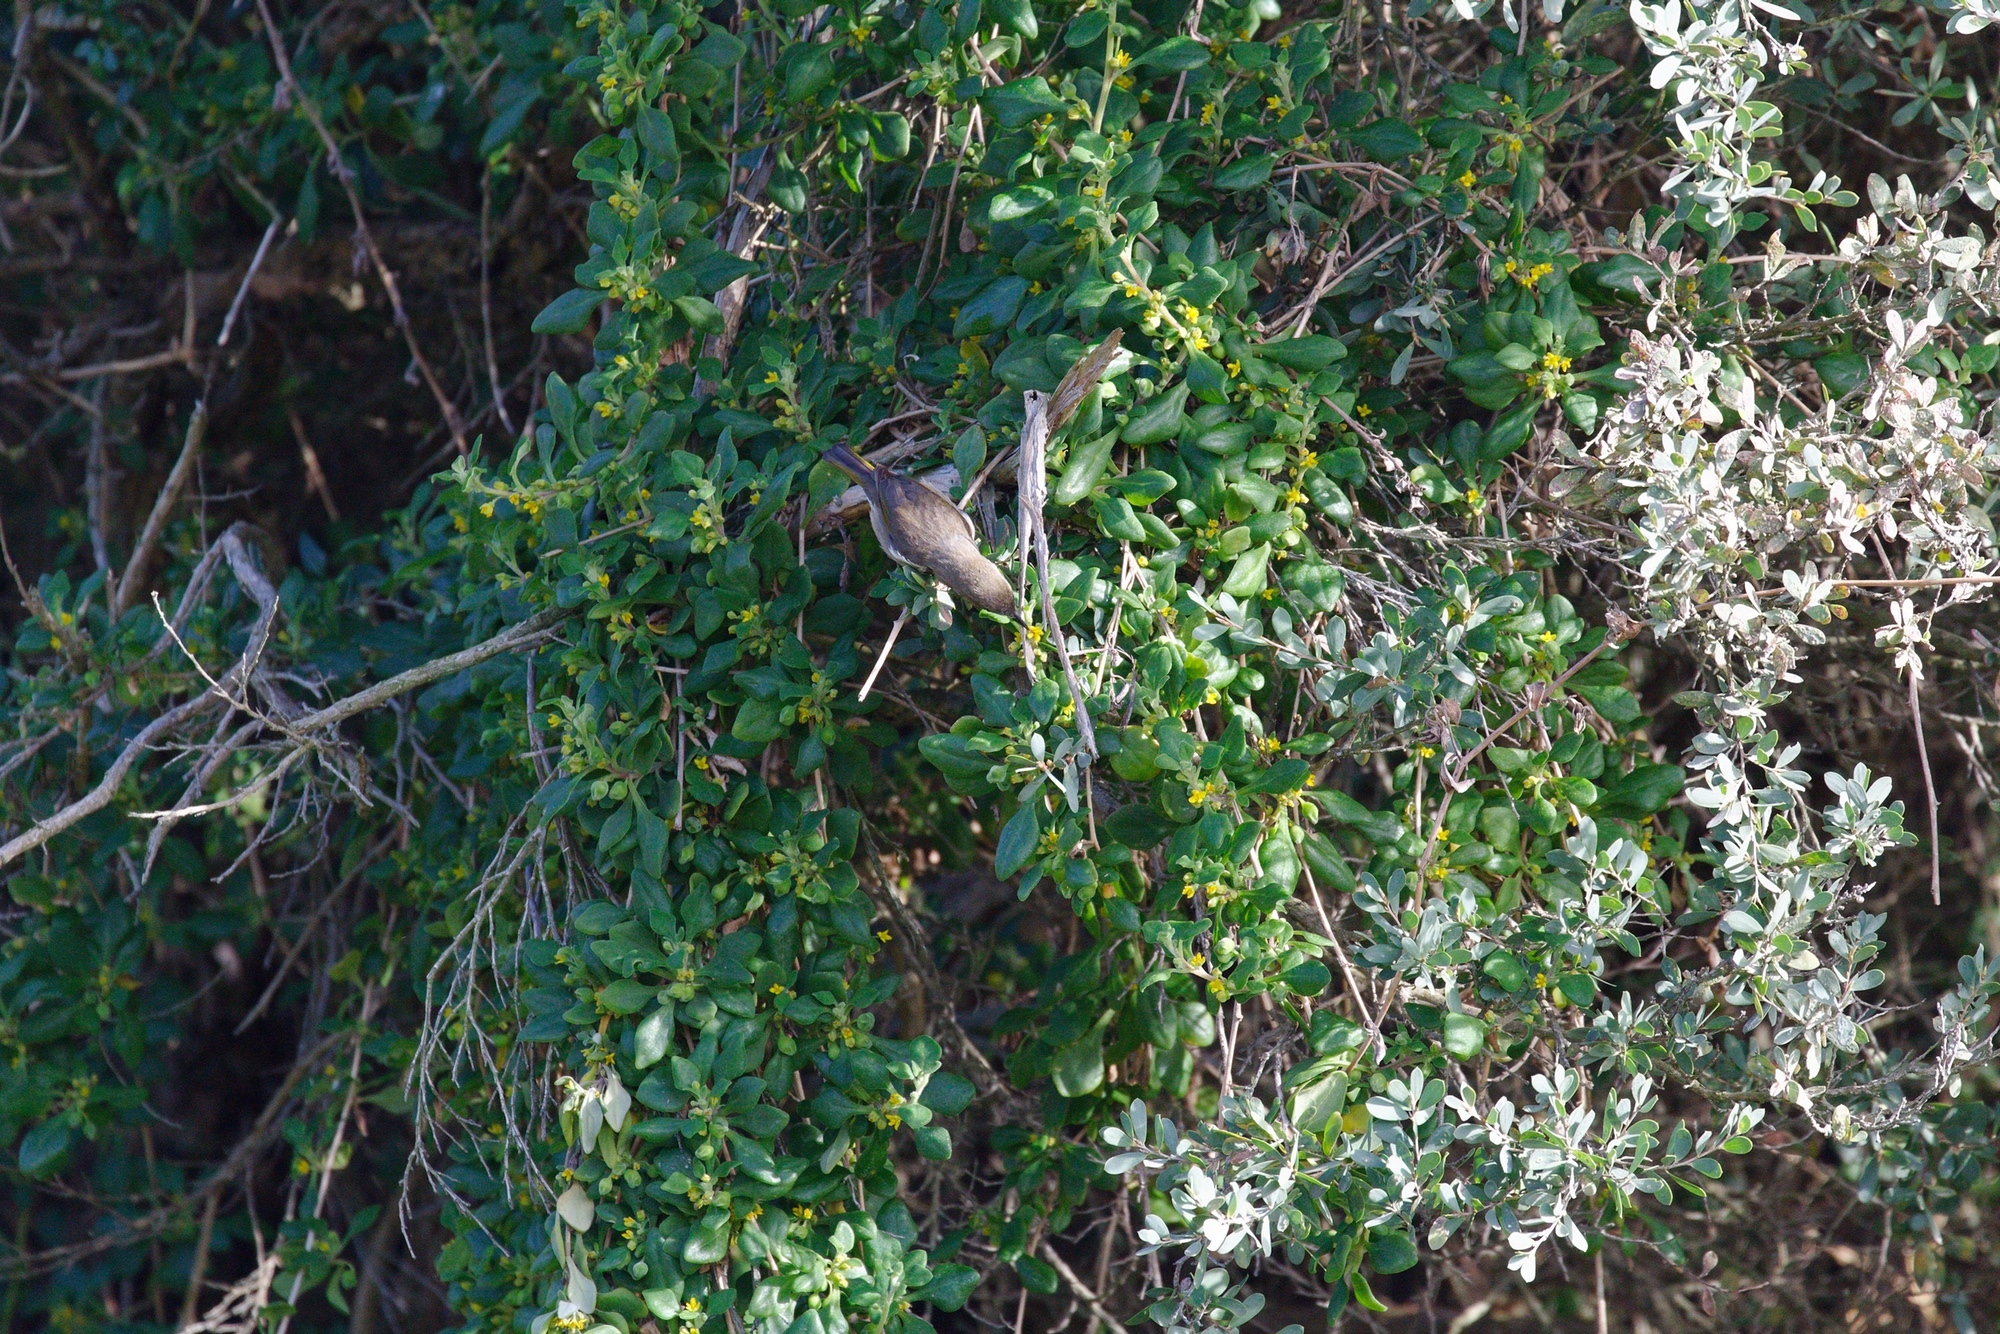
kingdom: Plantae
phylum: Tracheophyta
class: Magnoliopsida
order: Caryophyllales
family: Aizoaceae
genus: Tetragonia
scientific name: Tetragonia implexicoma
